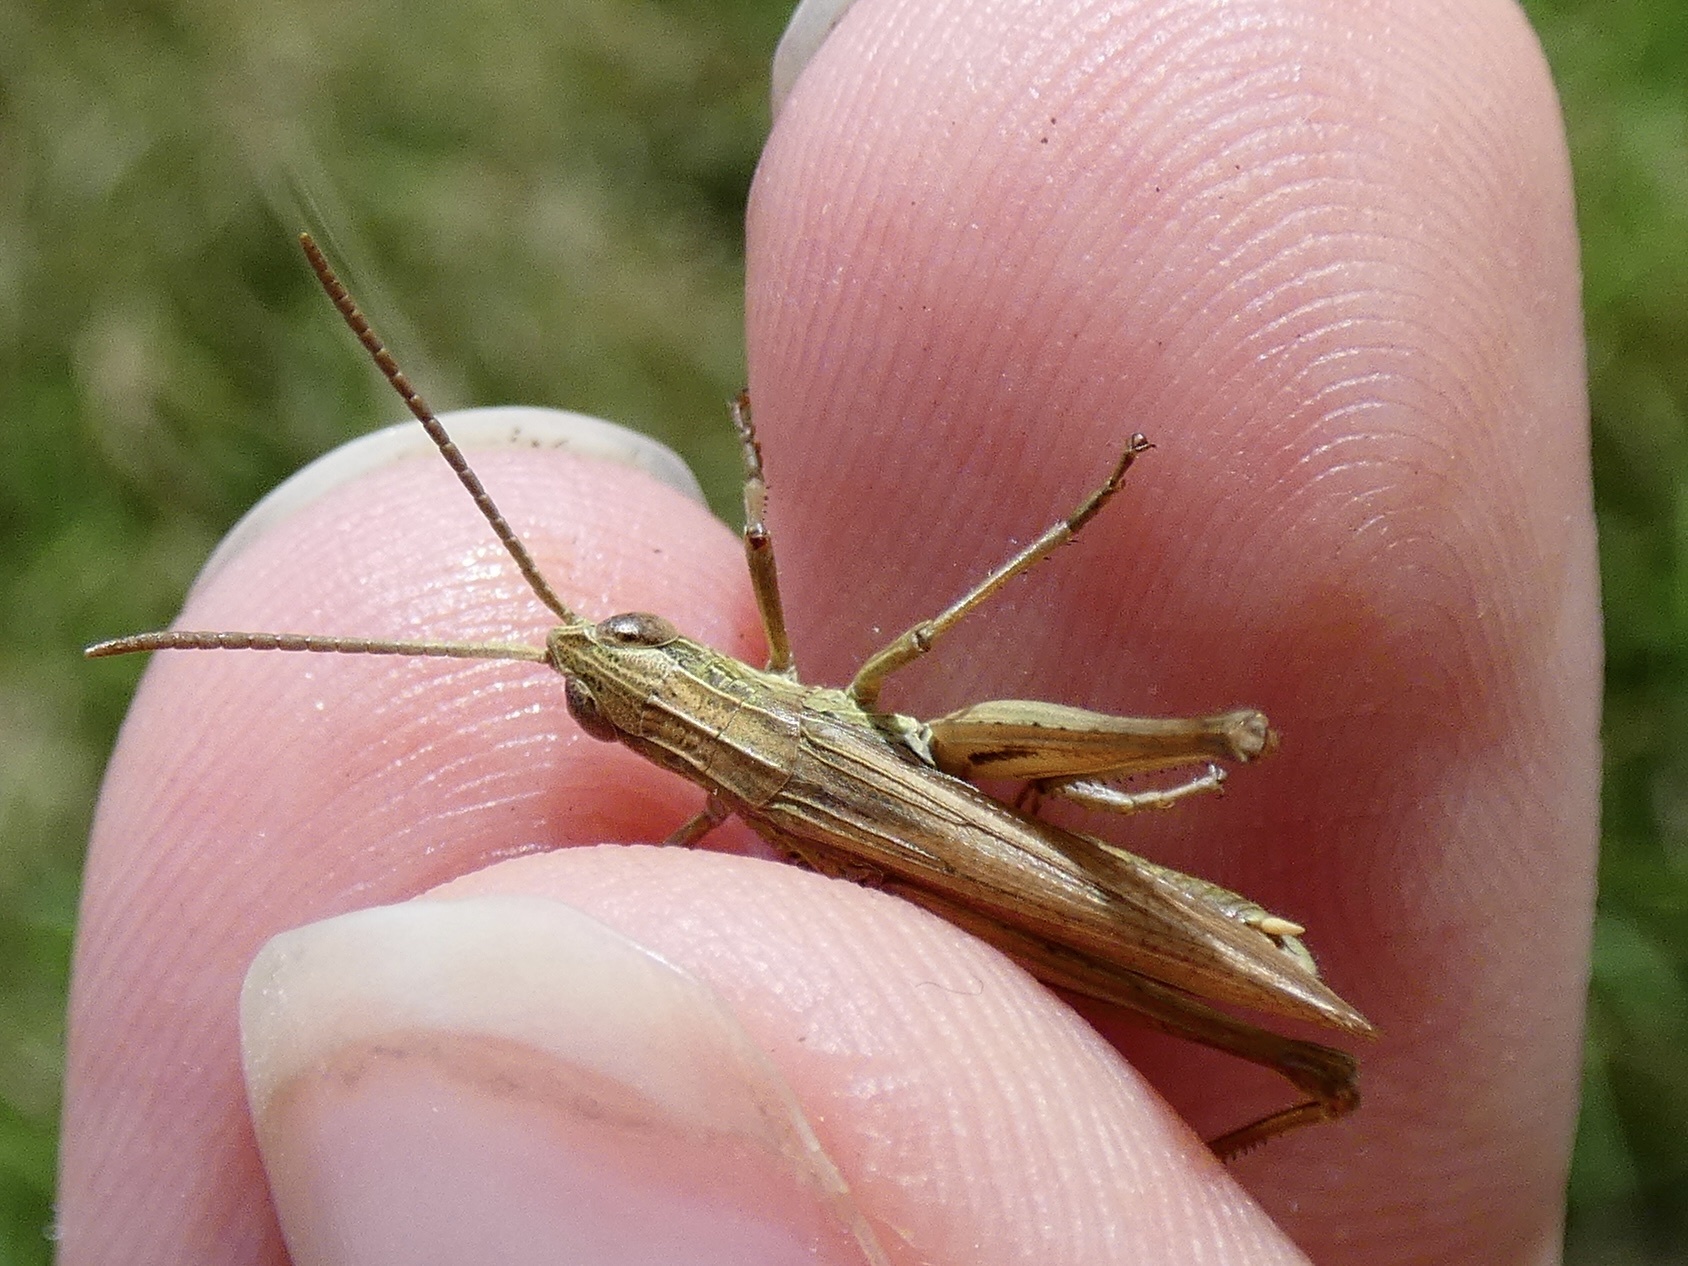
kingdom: Animalia
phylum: Arthropoda
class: Insecta
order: Orthoptera
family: Acrididae
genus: Chorthippus
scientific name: Chorthippus albomarginatus
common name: Lesser marsh grasshopper
